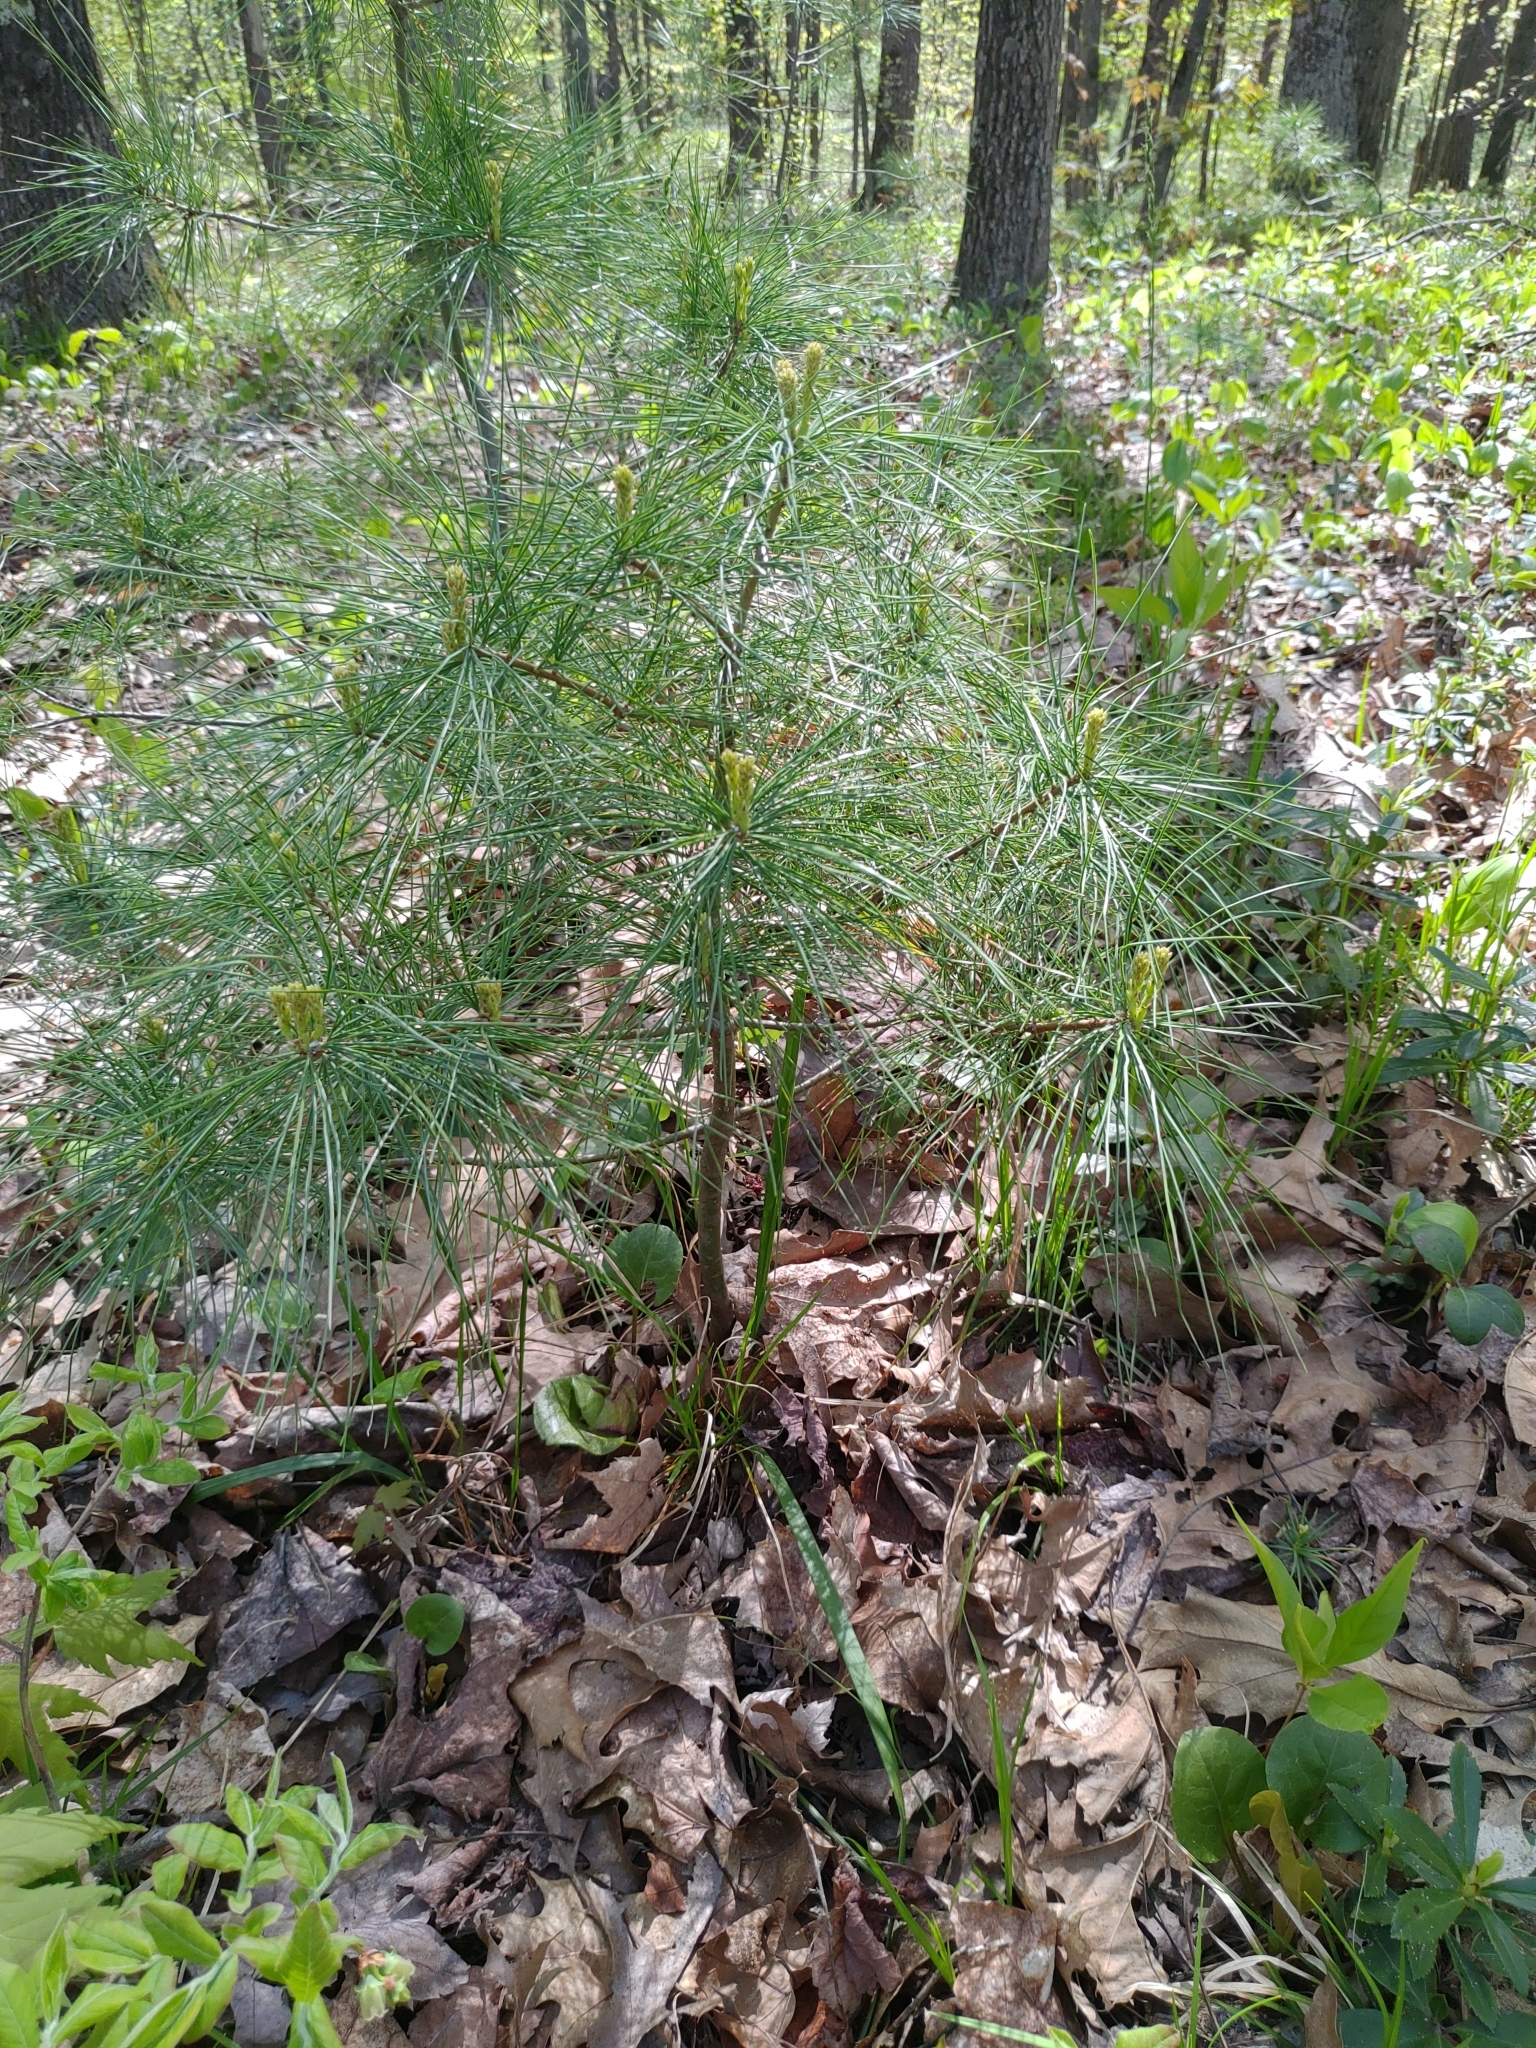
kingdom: Plantae
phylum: Tracheophyta
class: Pinopsida
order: Pinales
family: Pinaceae
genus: Pinus
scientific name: Pinus strobus
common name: Weymouth pine
